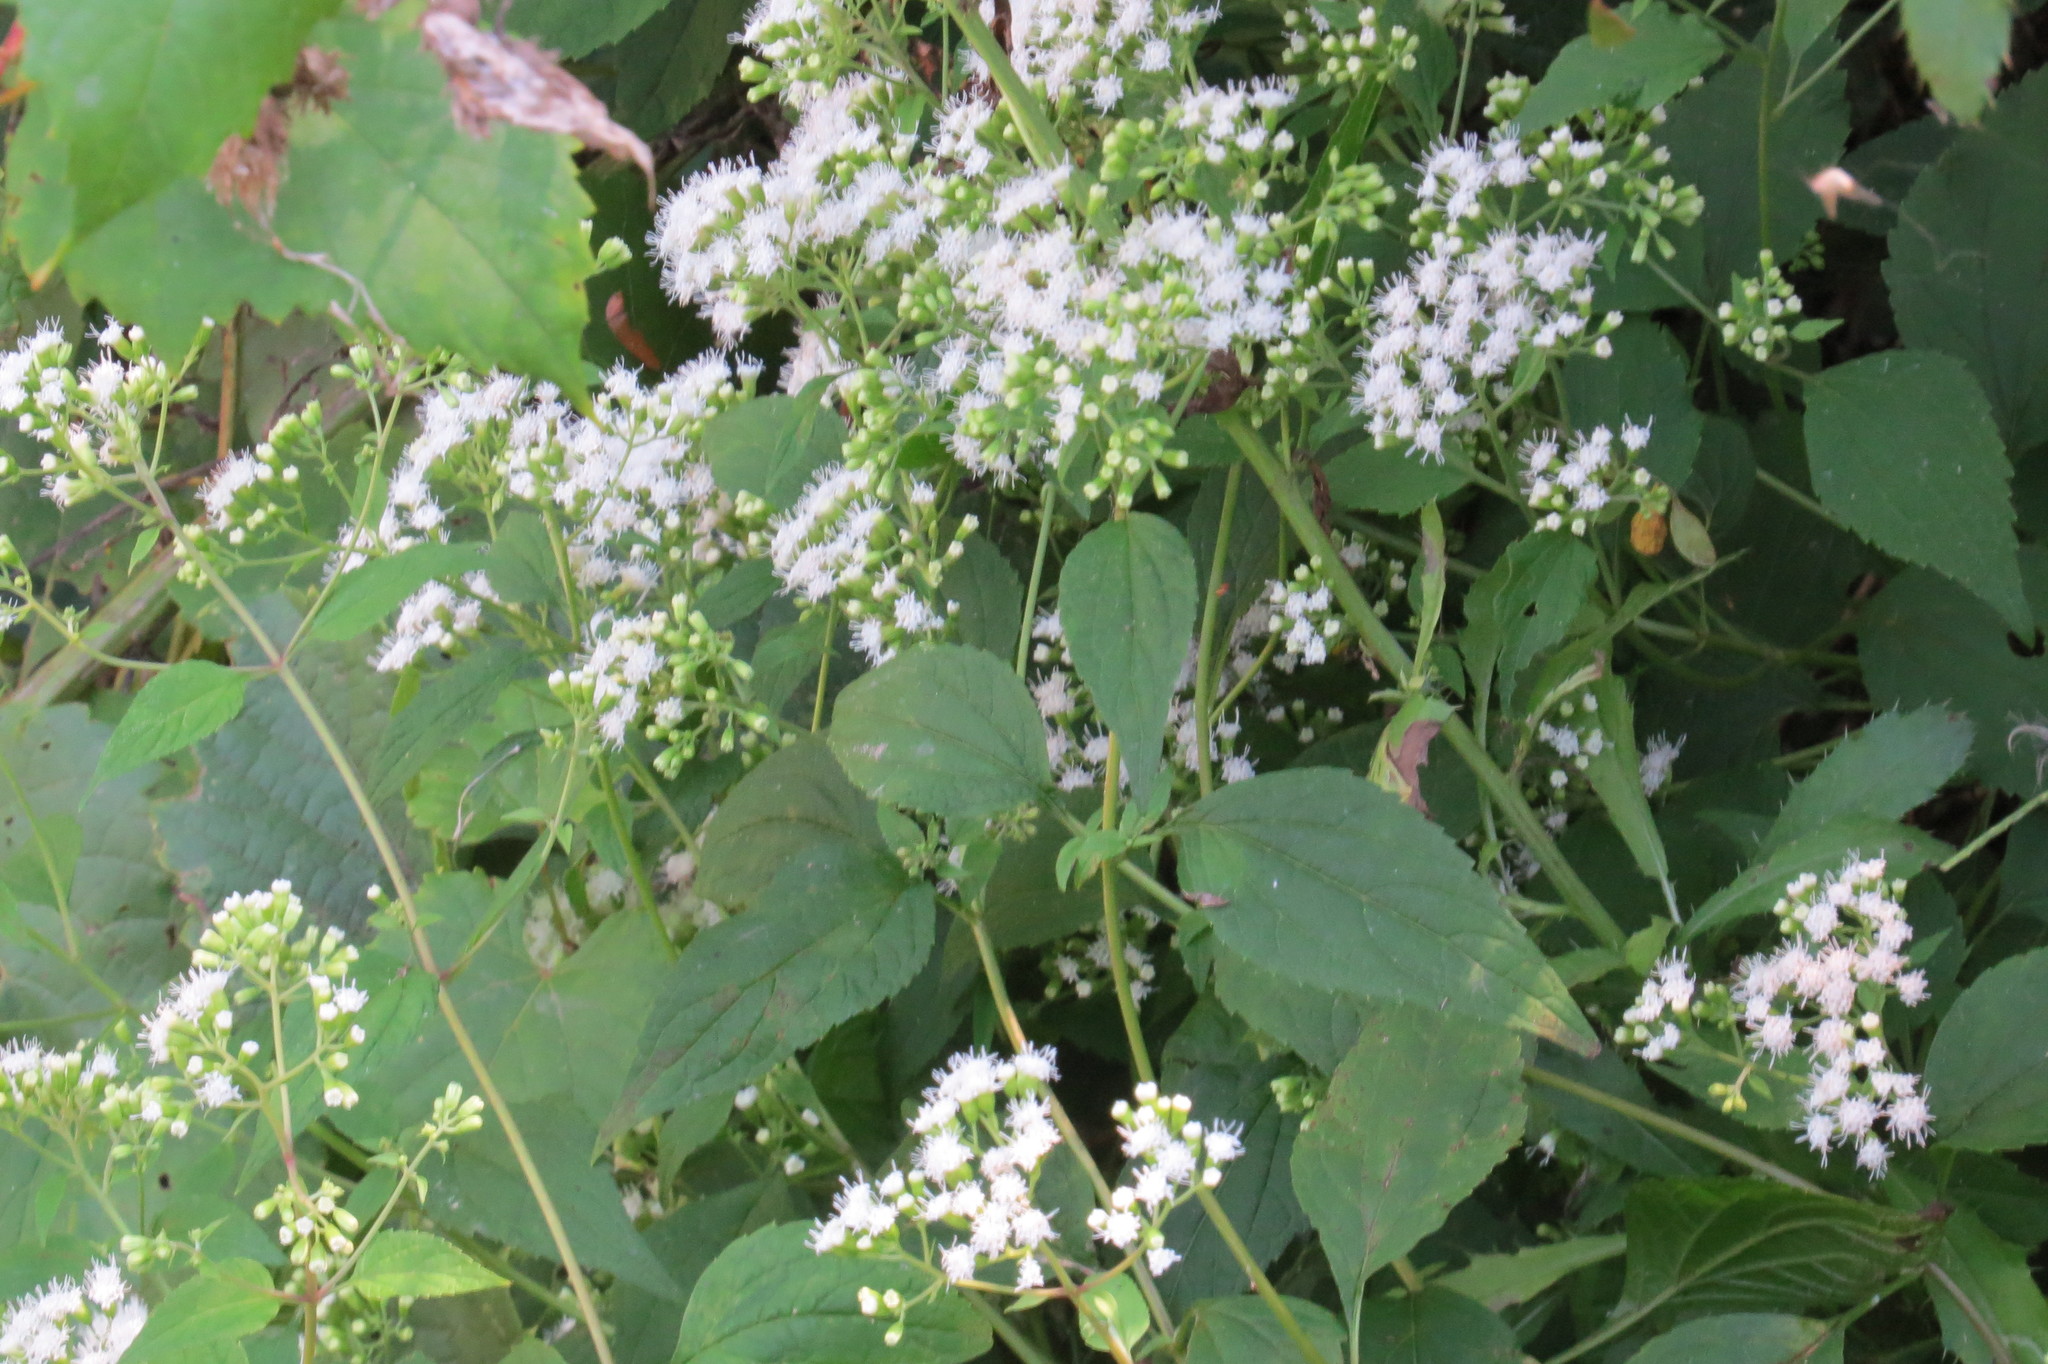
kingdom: Plantae
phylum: Tracheophyta
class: Magnoliopsida
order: Asterales
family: Asteraceae
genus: Ageratina
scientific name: Ageratina altissima
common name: White snakeroot
